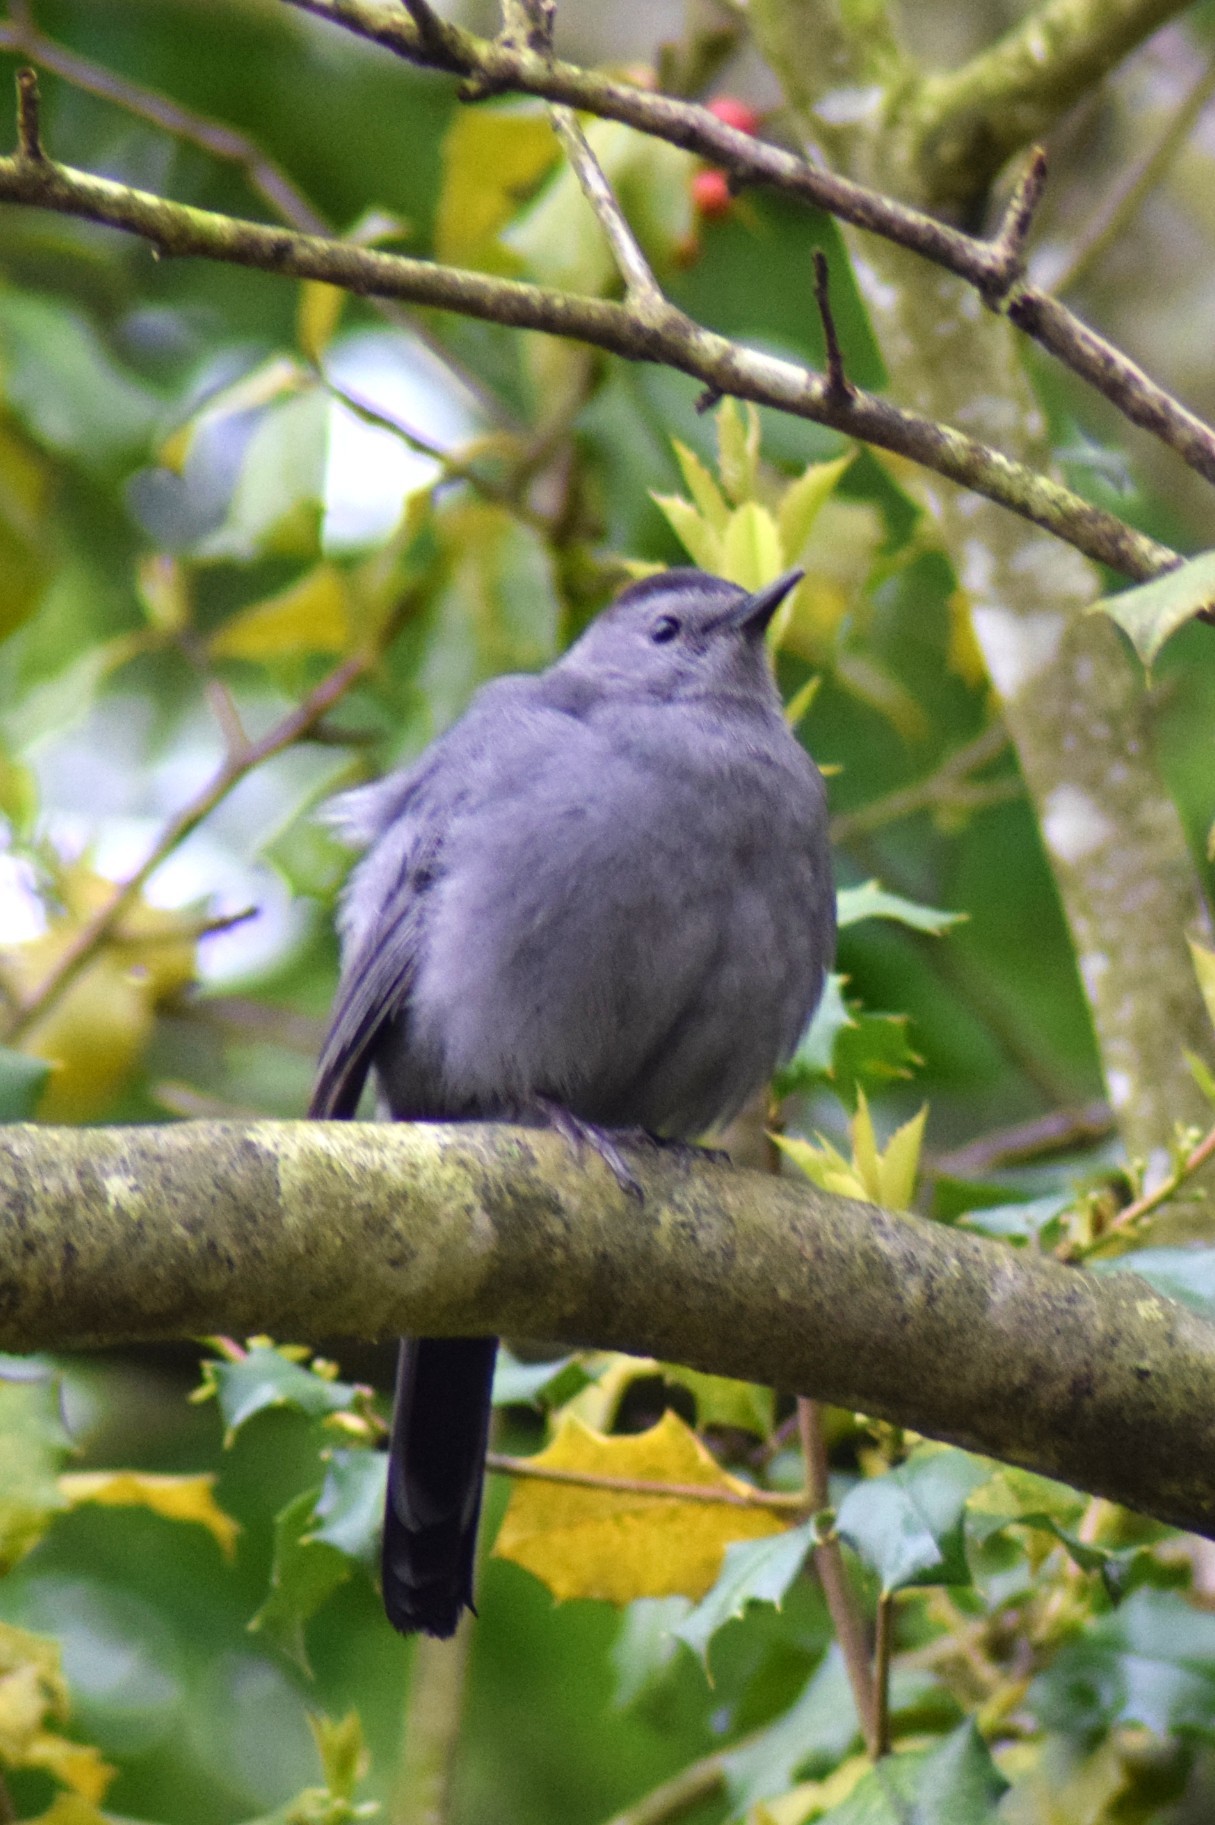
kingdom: Animalia
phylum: Chordata
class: Aves
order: Passeriformes
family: Mimidae
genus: Dumetella
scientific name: Dumetella carolinensis
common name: Gray catbird
